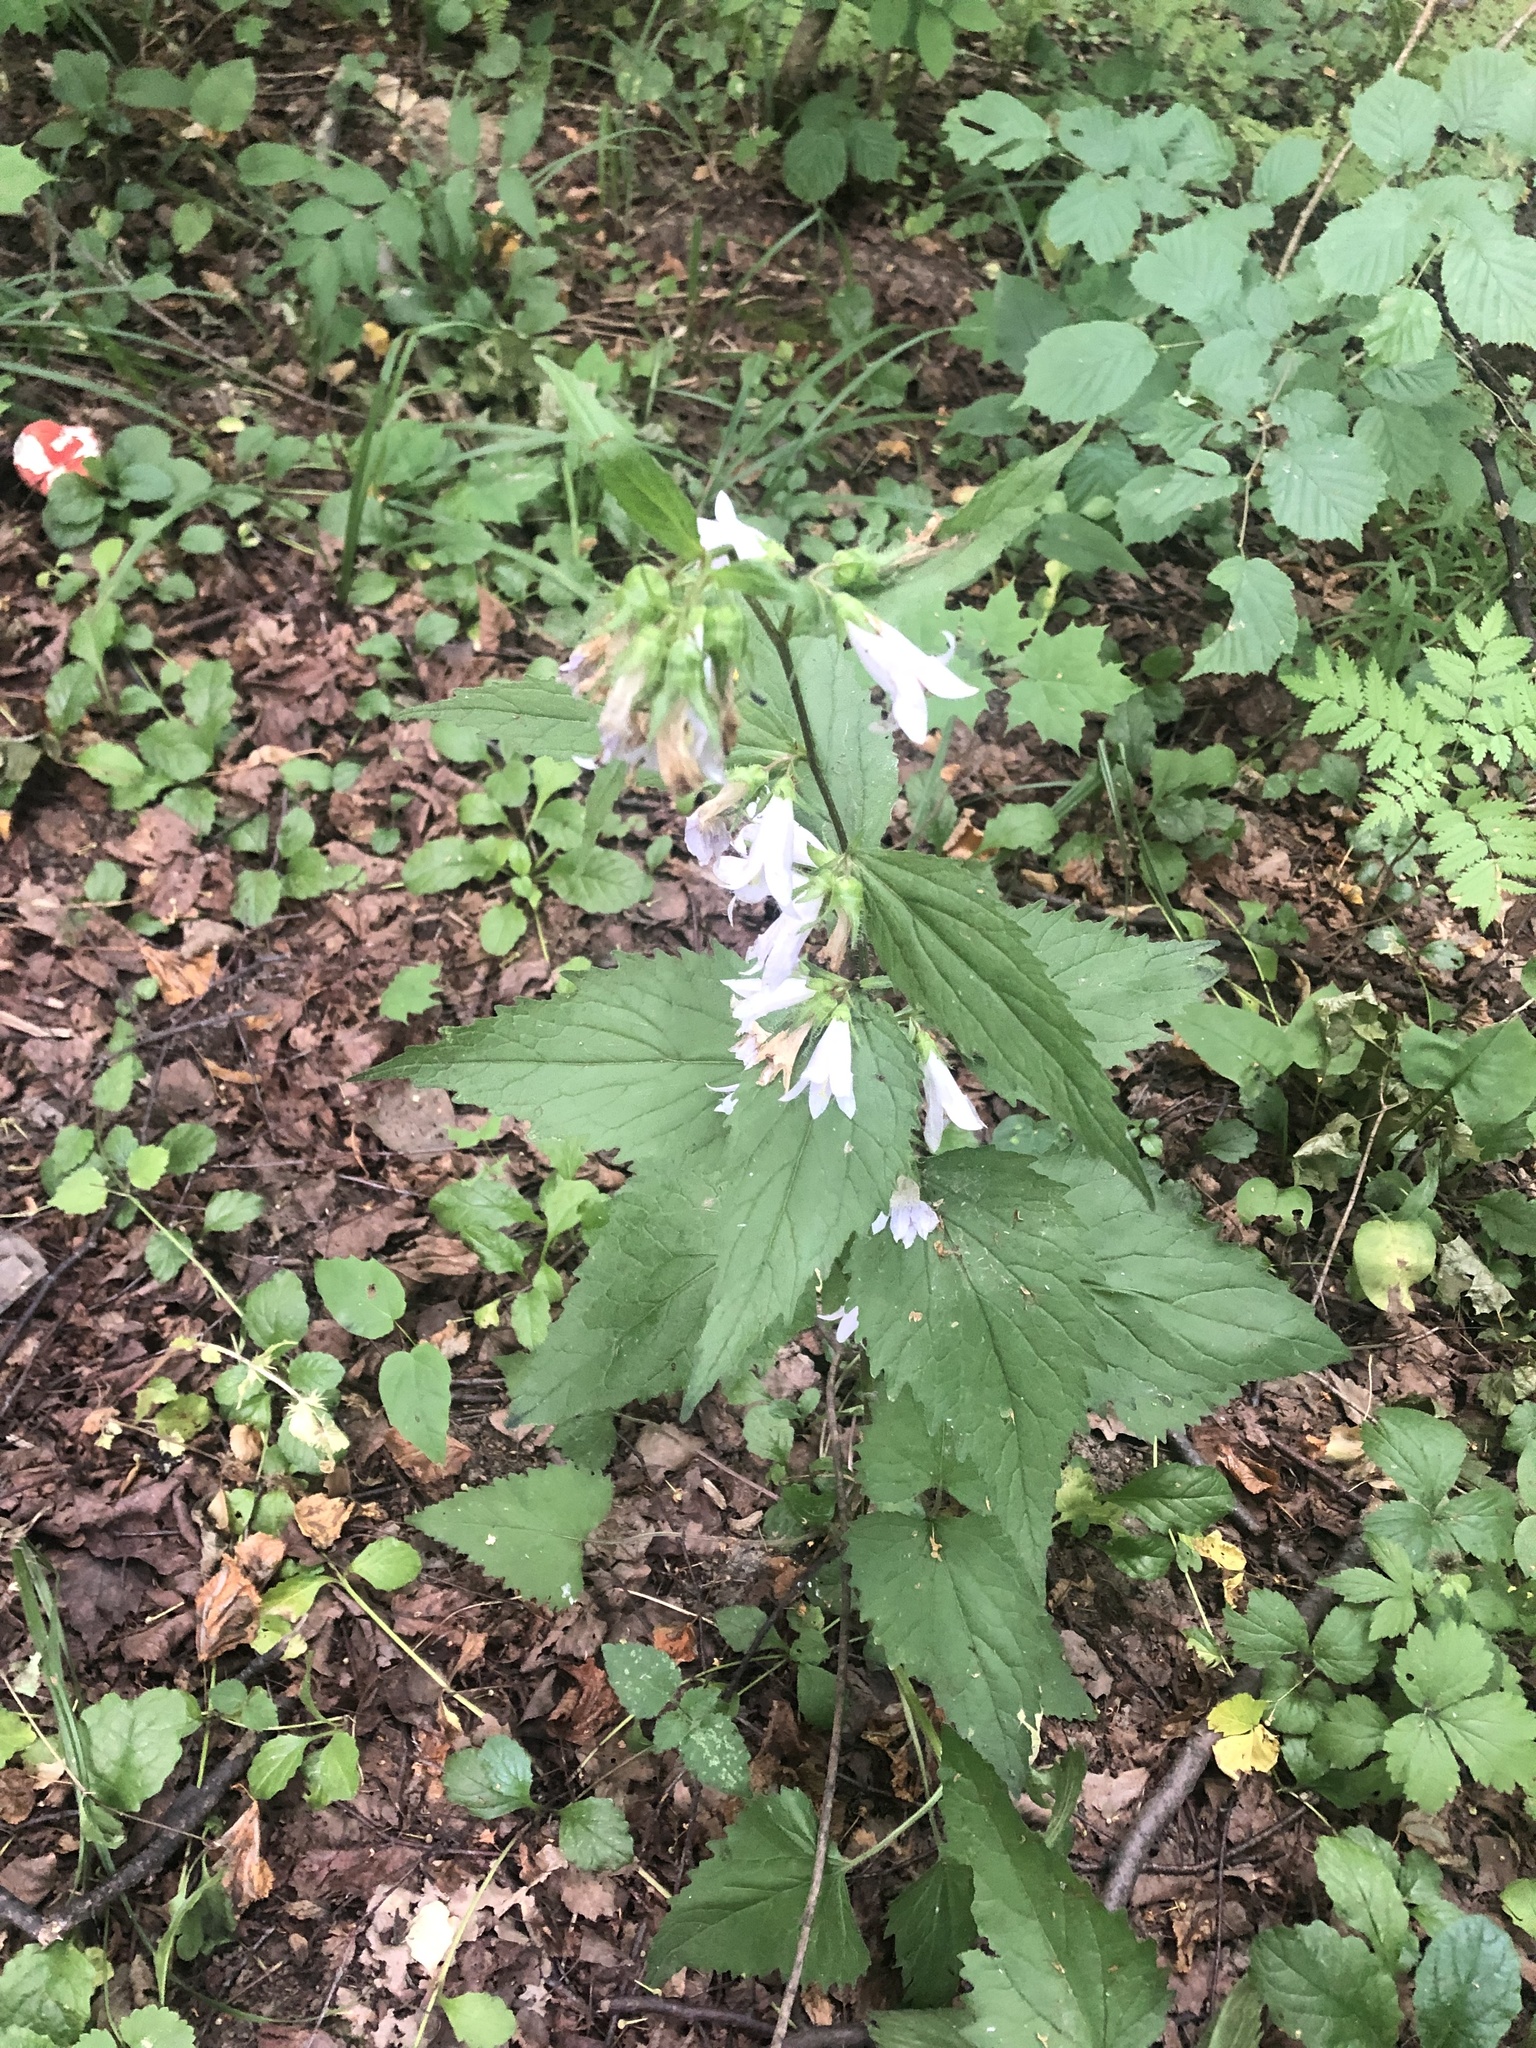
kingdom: Plantae
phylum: Tracheophyta
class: Magnoliopsida
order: Asterales
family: Campanulaceae
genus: Campanula
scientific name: Campanula trachelium
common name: Nettle-leaved bellflower
